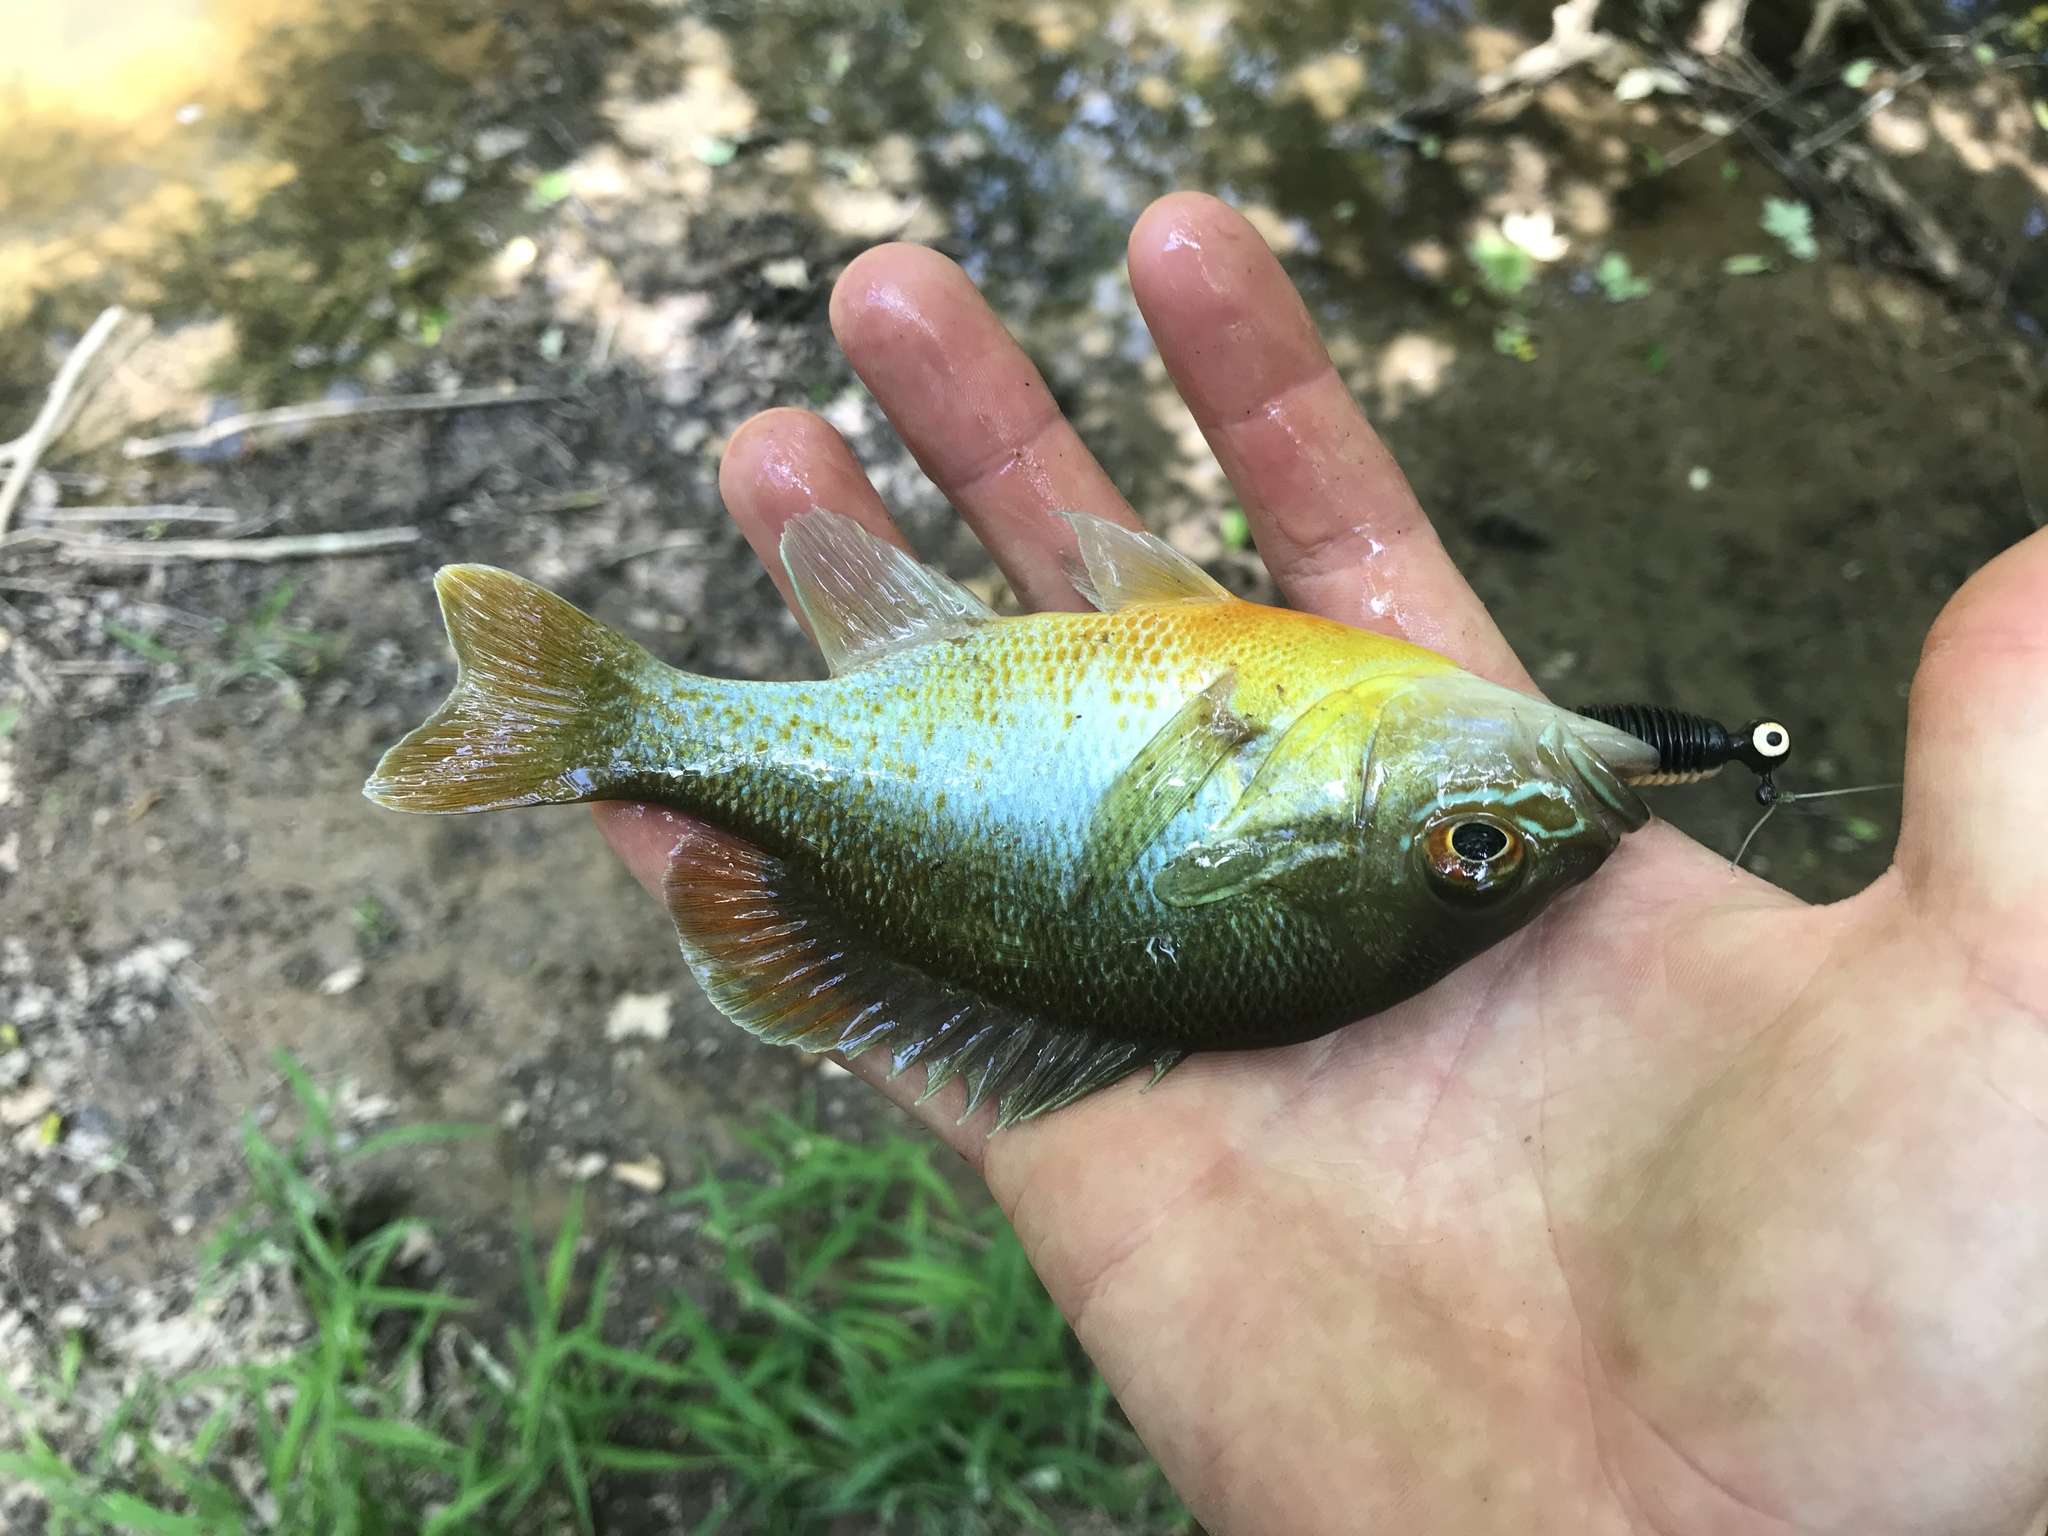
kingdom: Animalia
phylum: Chordata
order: Perciformes
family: Centrarchidae
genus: Lepomis
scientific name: Lepomis auritus
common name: Redbreast sunfish
